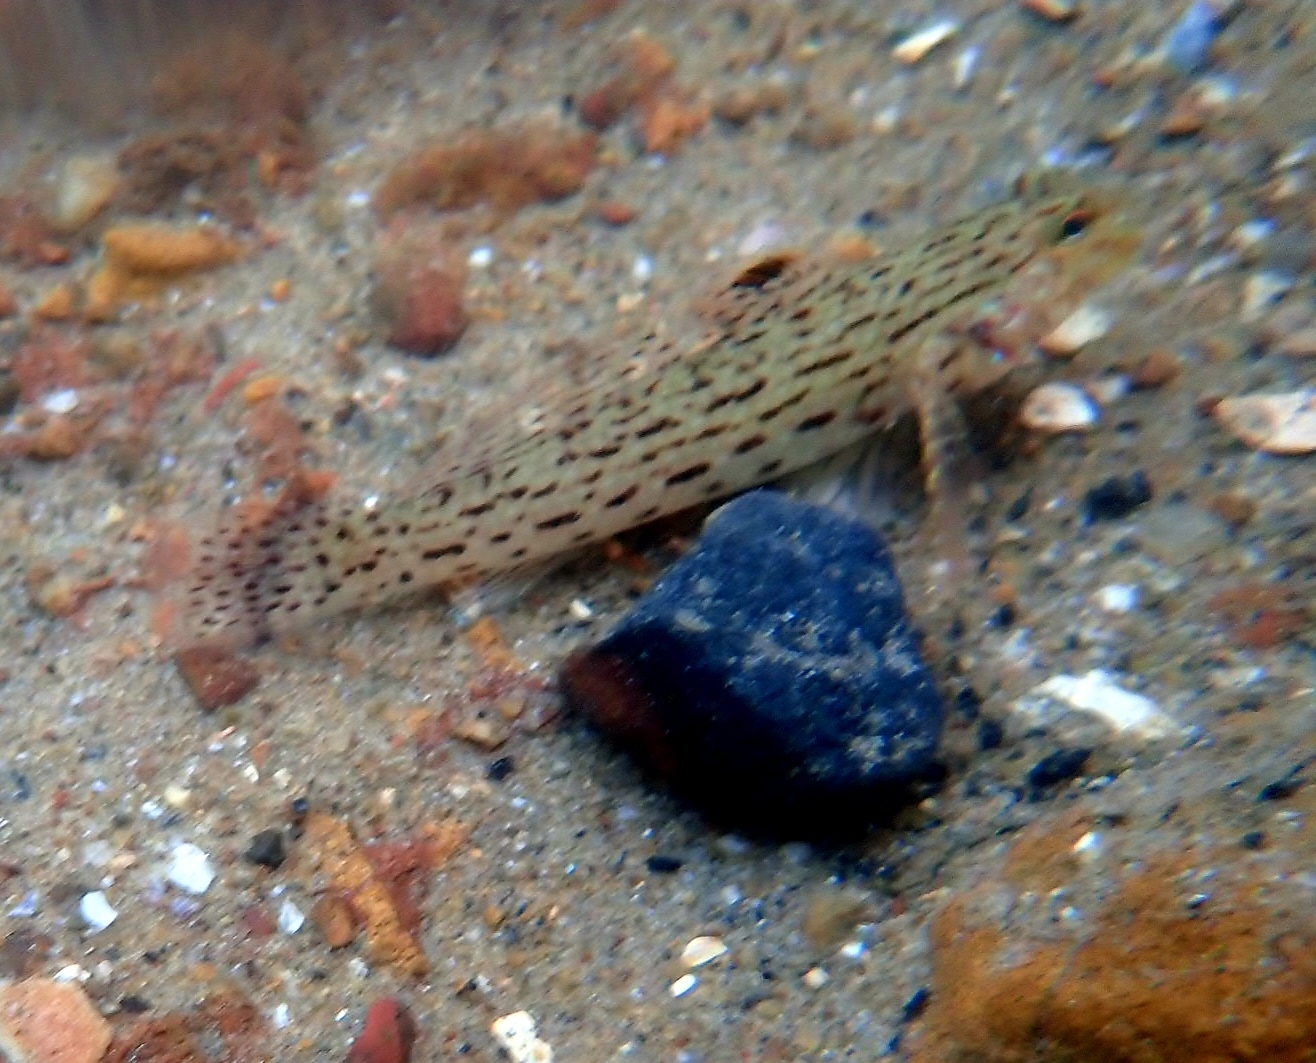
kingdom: Animalia
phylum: Chordata
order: Perciformes
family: Gobiidae
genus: Istigobius
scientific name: Istigobius ornatus
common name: Ornate goby
